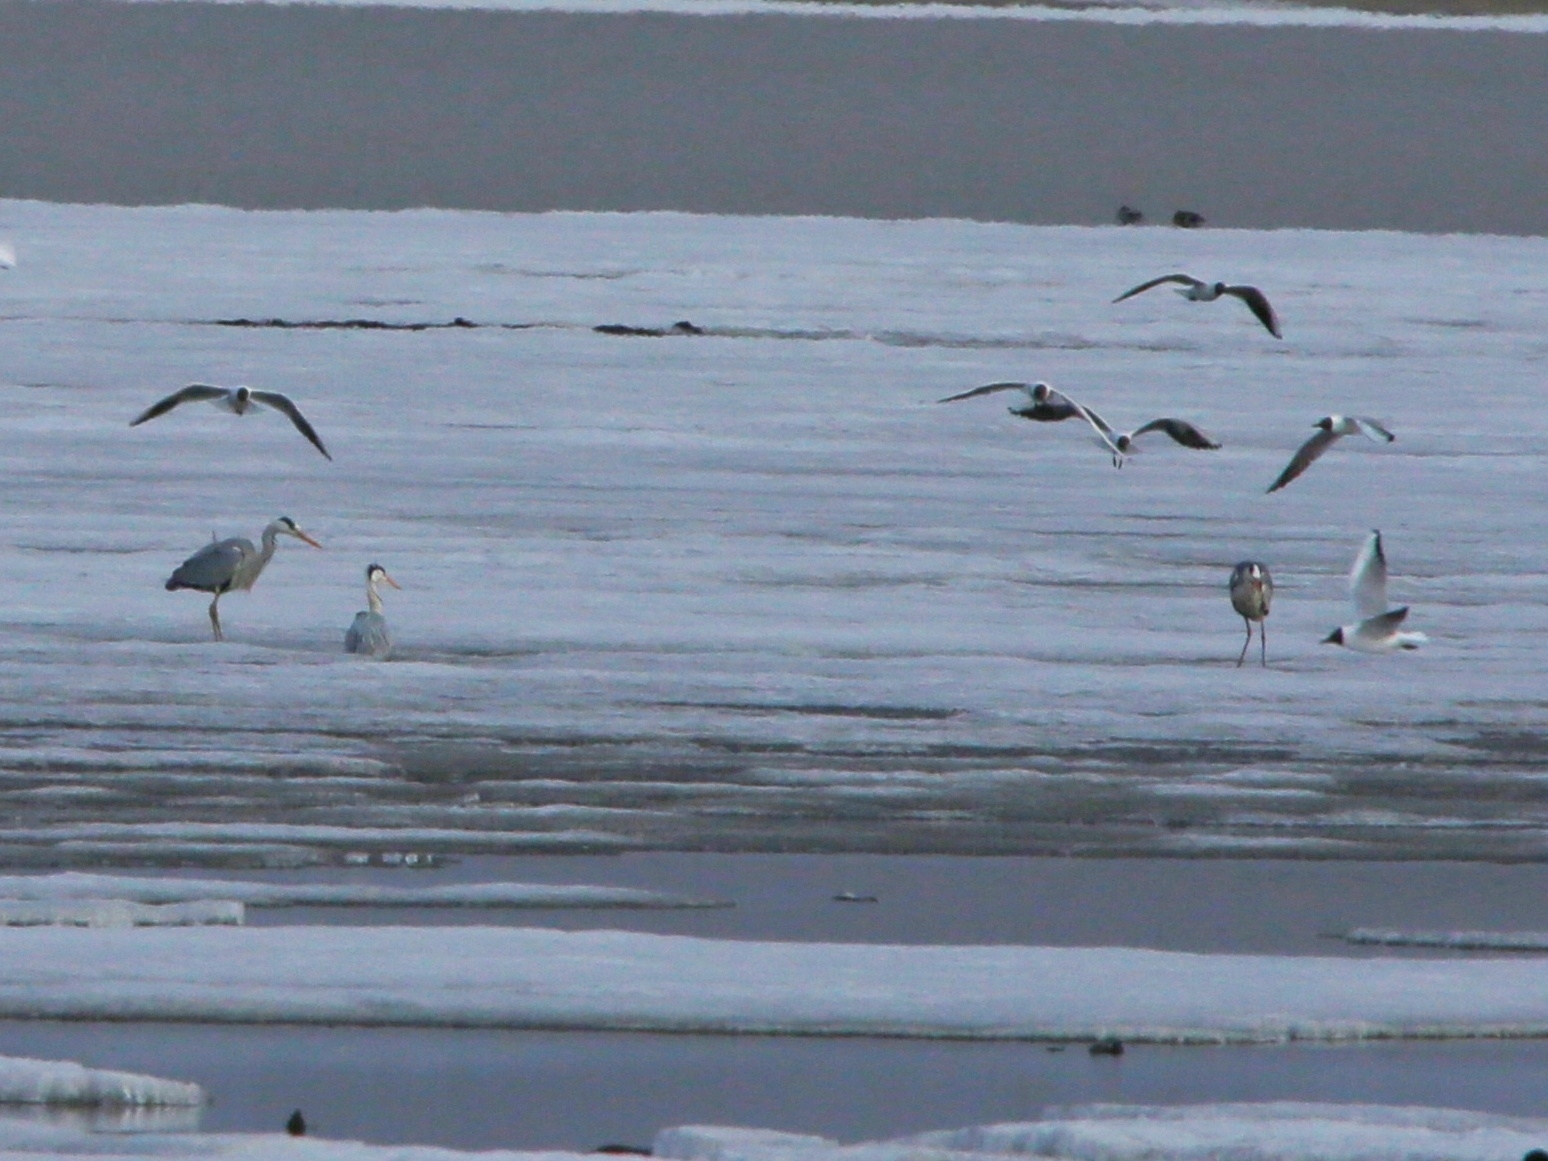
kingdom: Animalia
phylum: Chordata
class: Aves
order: Pelecaniformes
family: Ardeidae
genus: Ardea
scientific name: Ardea cinerea
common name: Grey heron
